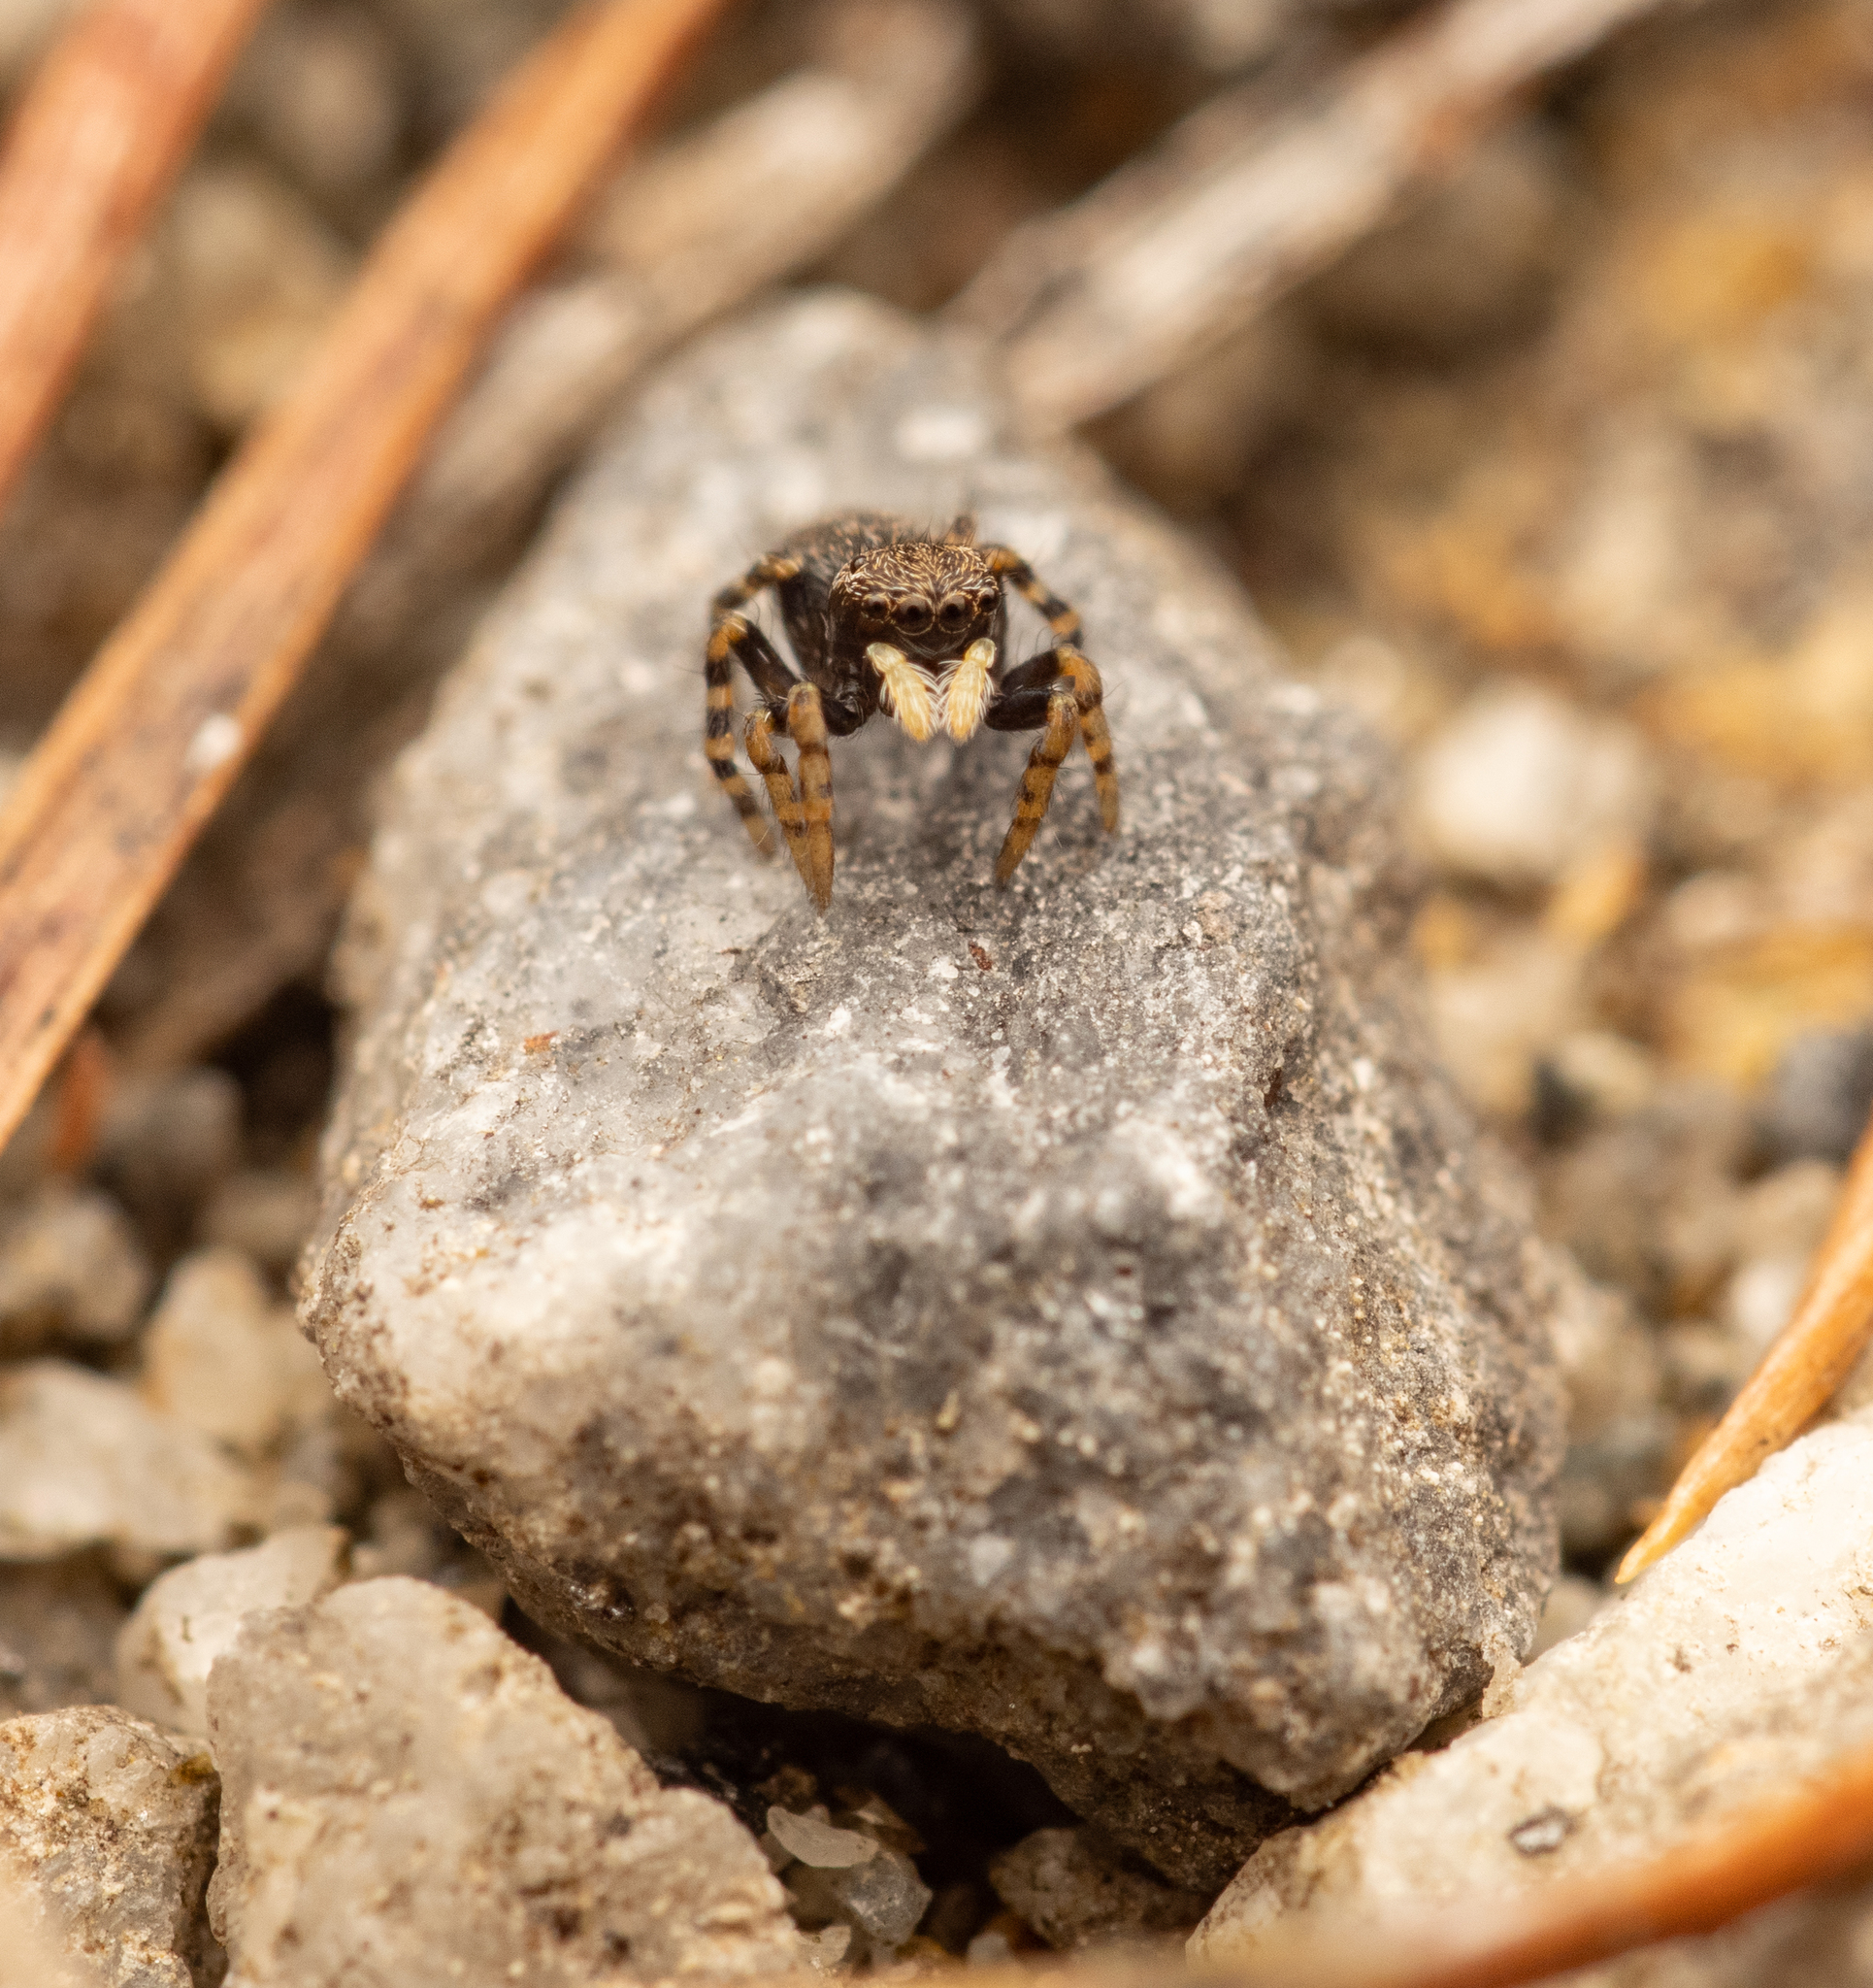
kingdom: Animalia
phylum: Arthropoda
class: Arachnida
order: Araneae
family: Salticidae
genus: Talavera
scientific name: Talavera petrensis
